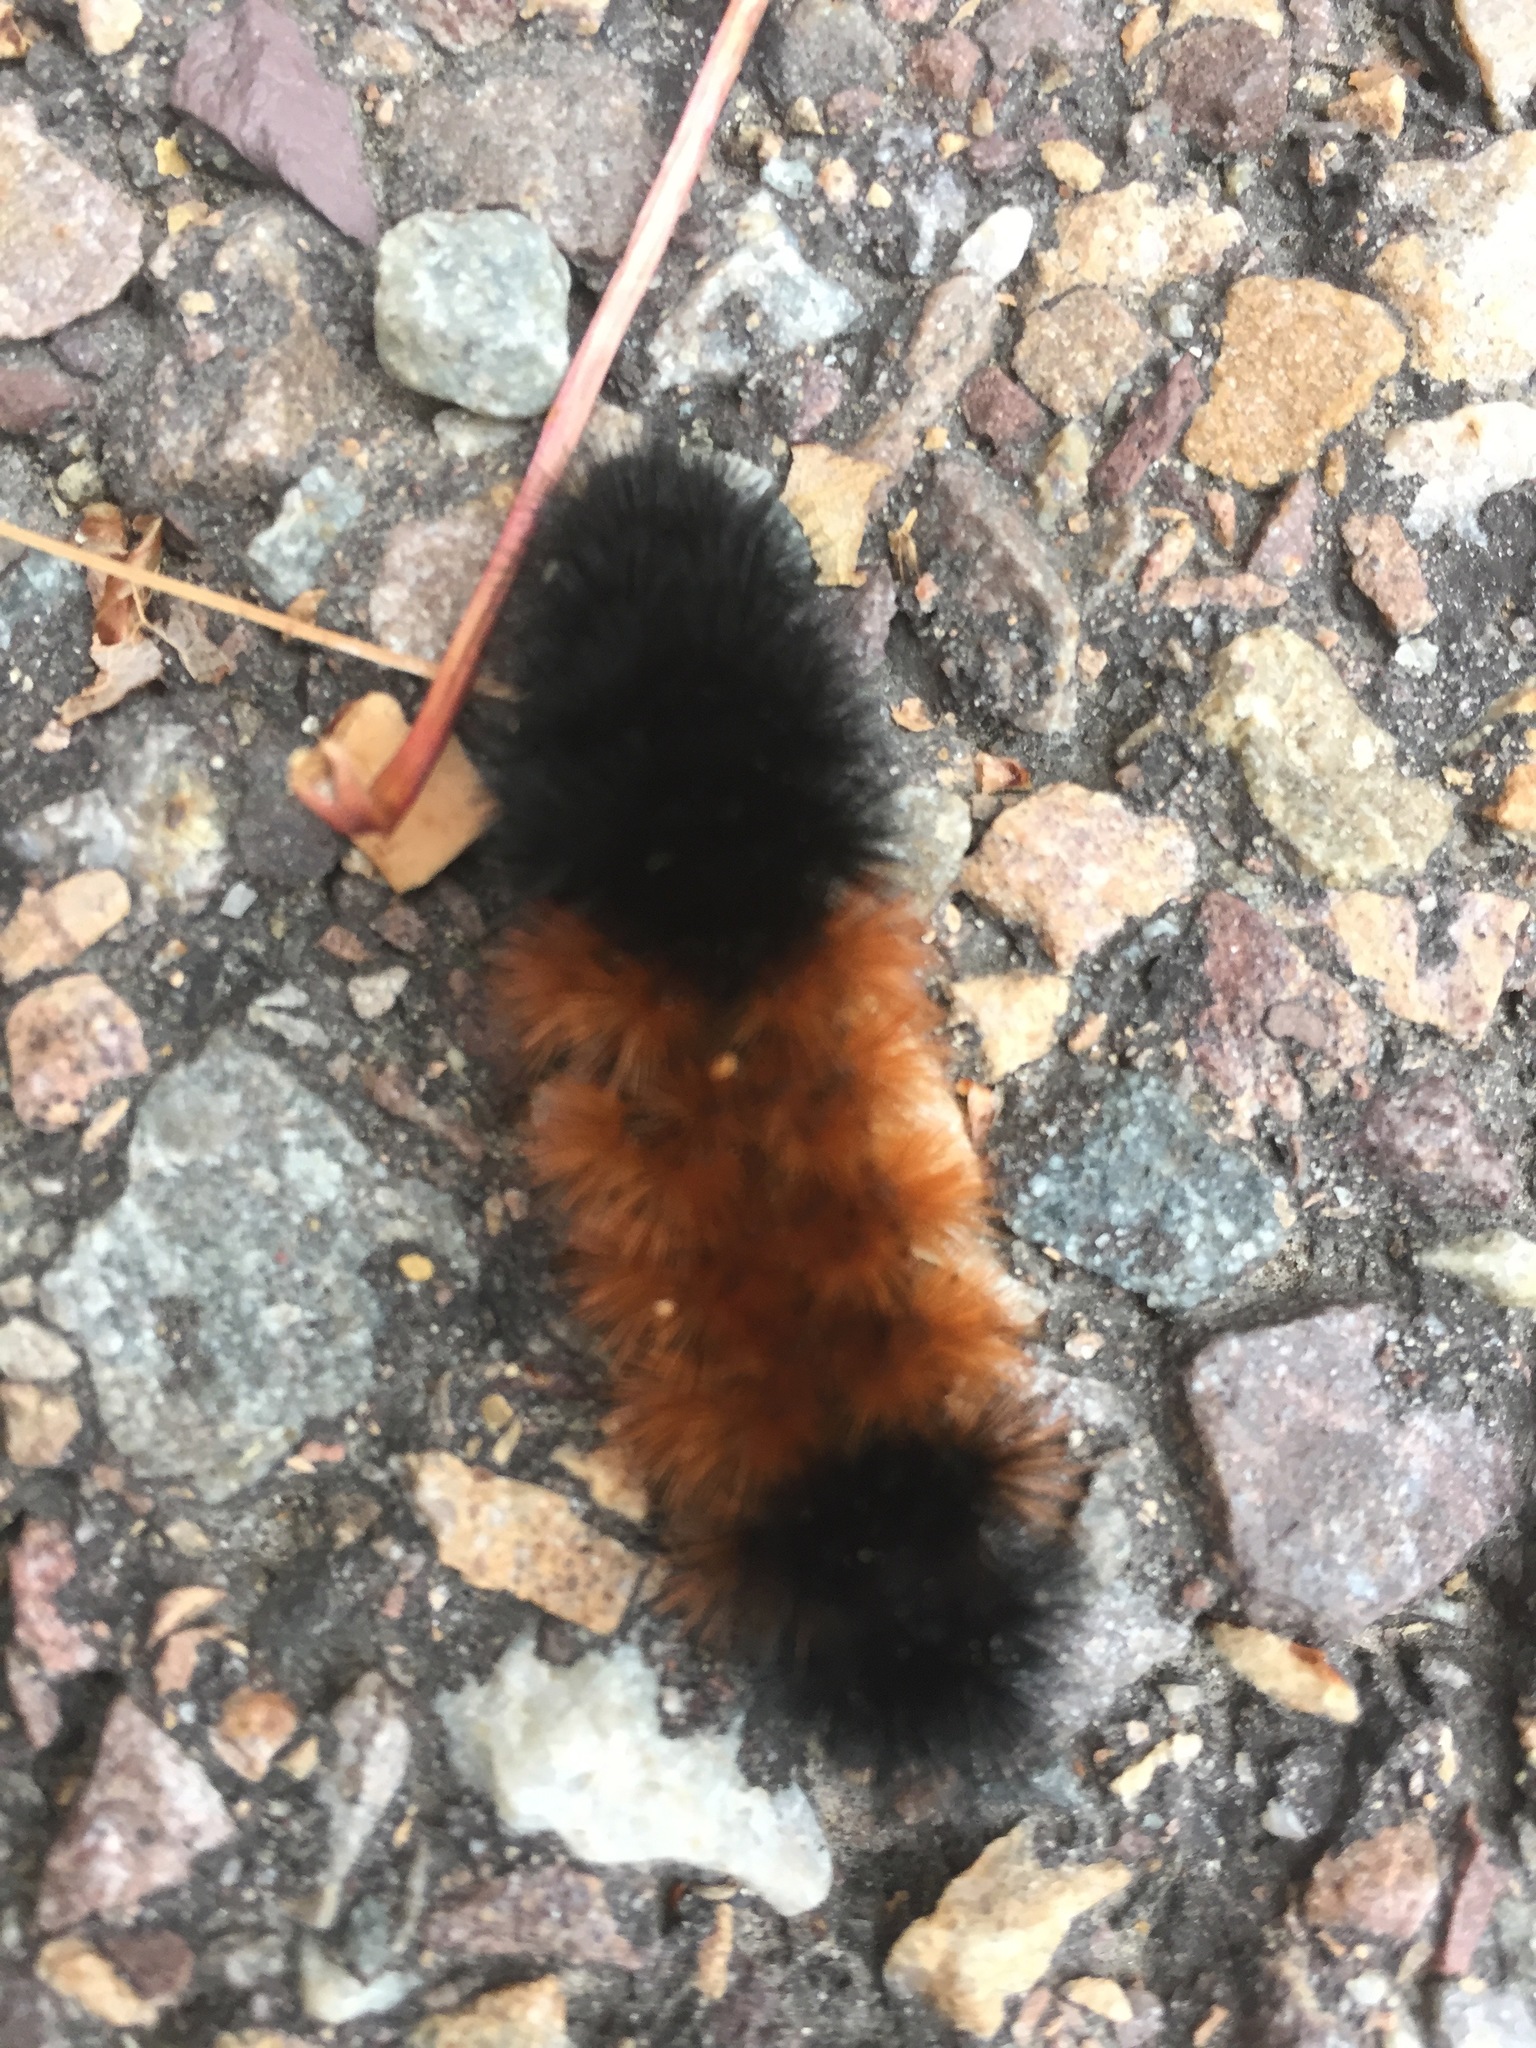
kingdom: Animalia
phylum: Arthropoda
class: Insecta
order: Lepidoptera
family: Erebidae
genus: Pyrrharctia
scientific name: Pyrrharctia isabella
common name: Isabella tiger moth
